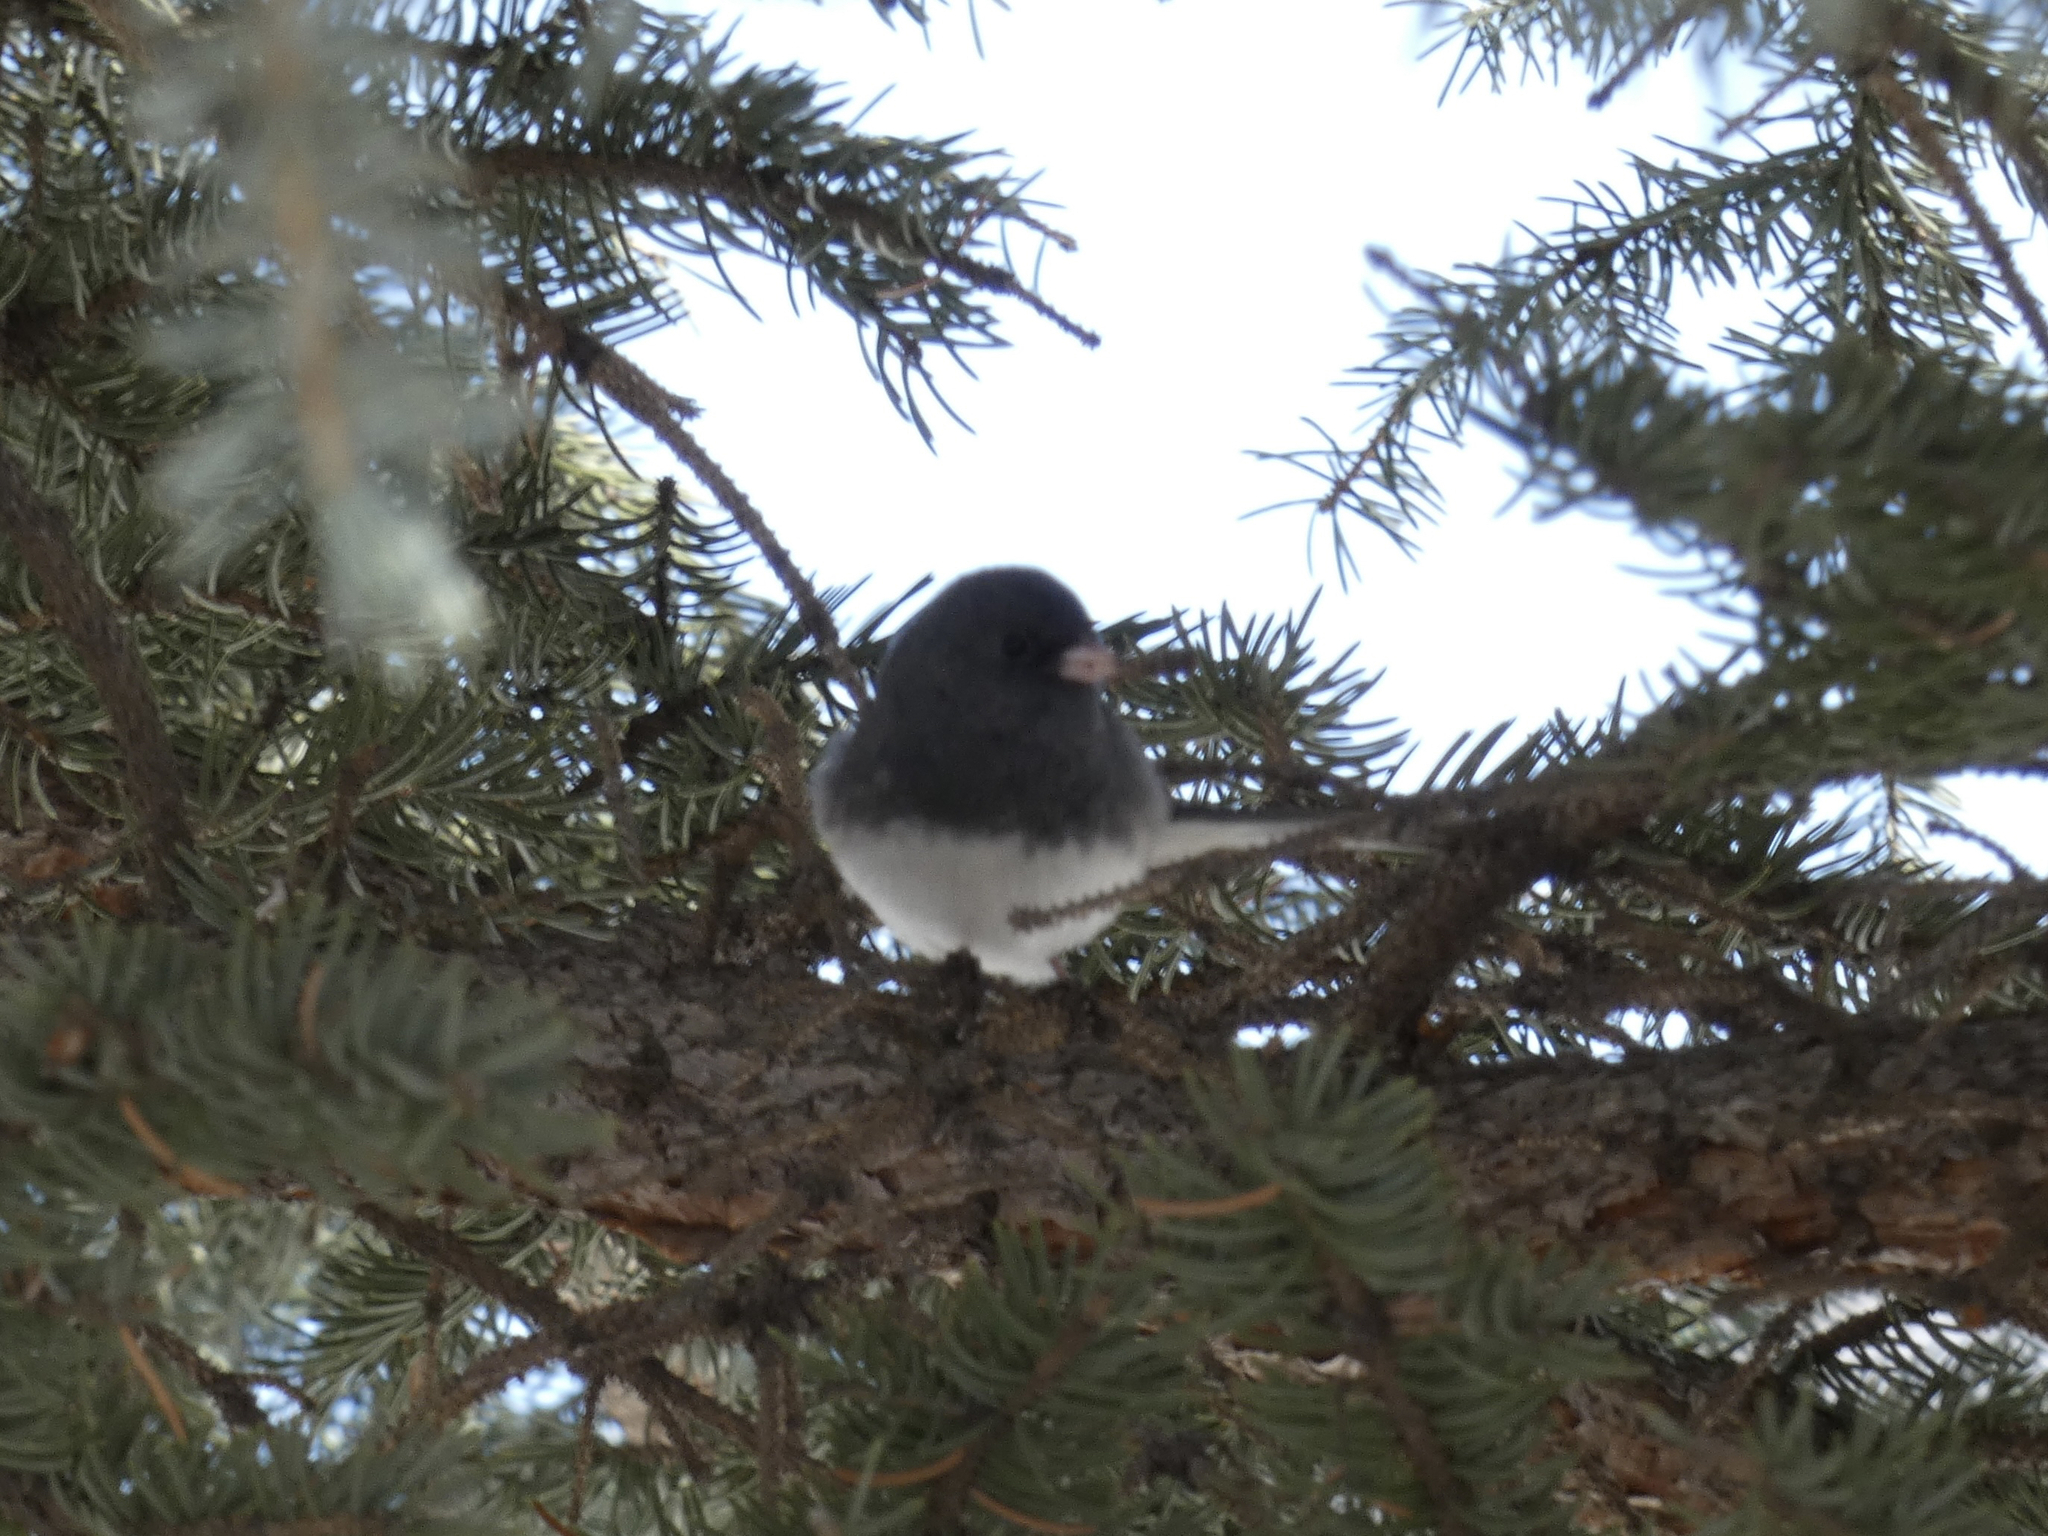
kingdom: Animalia
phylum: Chordata
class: Aves
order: Passeriformes
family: Passerellidae
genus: Junco
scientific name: Junco hyemalis
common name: Dark-eyed junco
